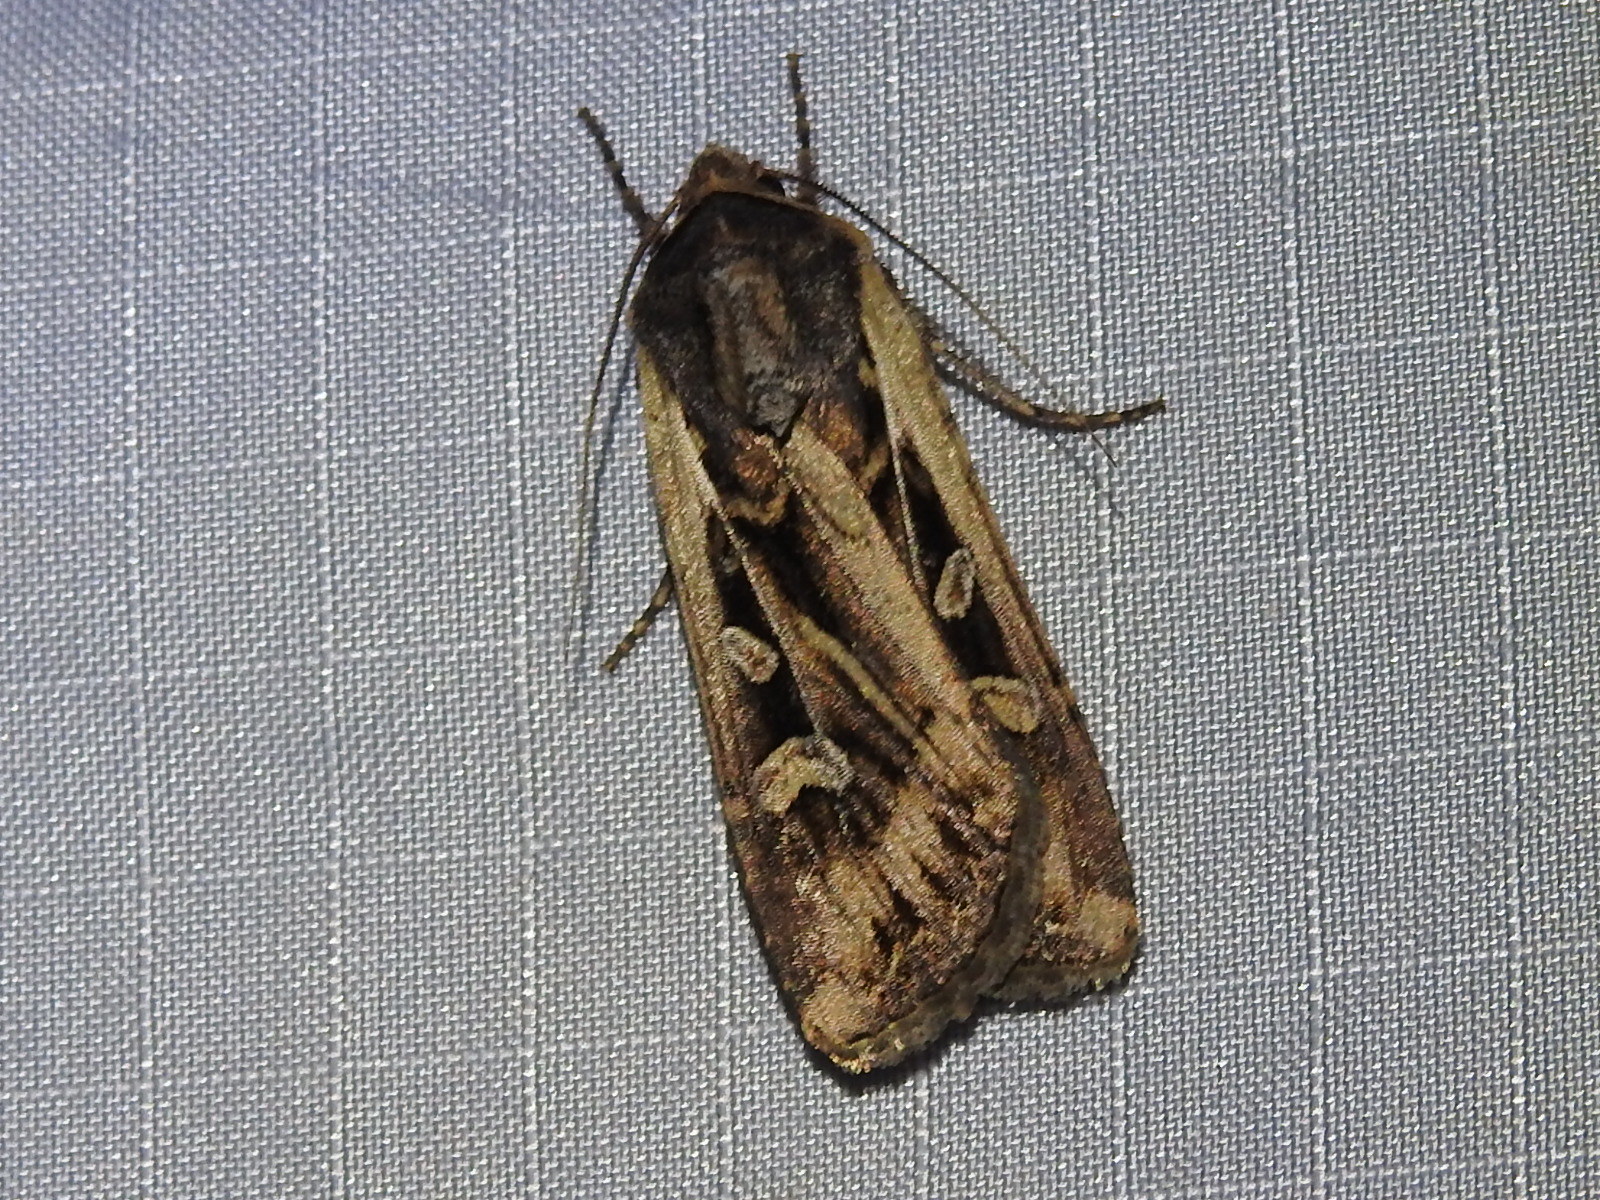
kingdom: Animalia
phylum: Arthropoda
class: Insecta
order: Lepidoptera
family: Noctuidae
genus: Euxoa
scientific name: Euxoa auxiliaris
